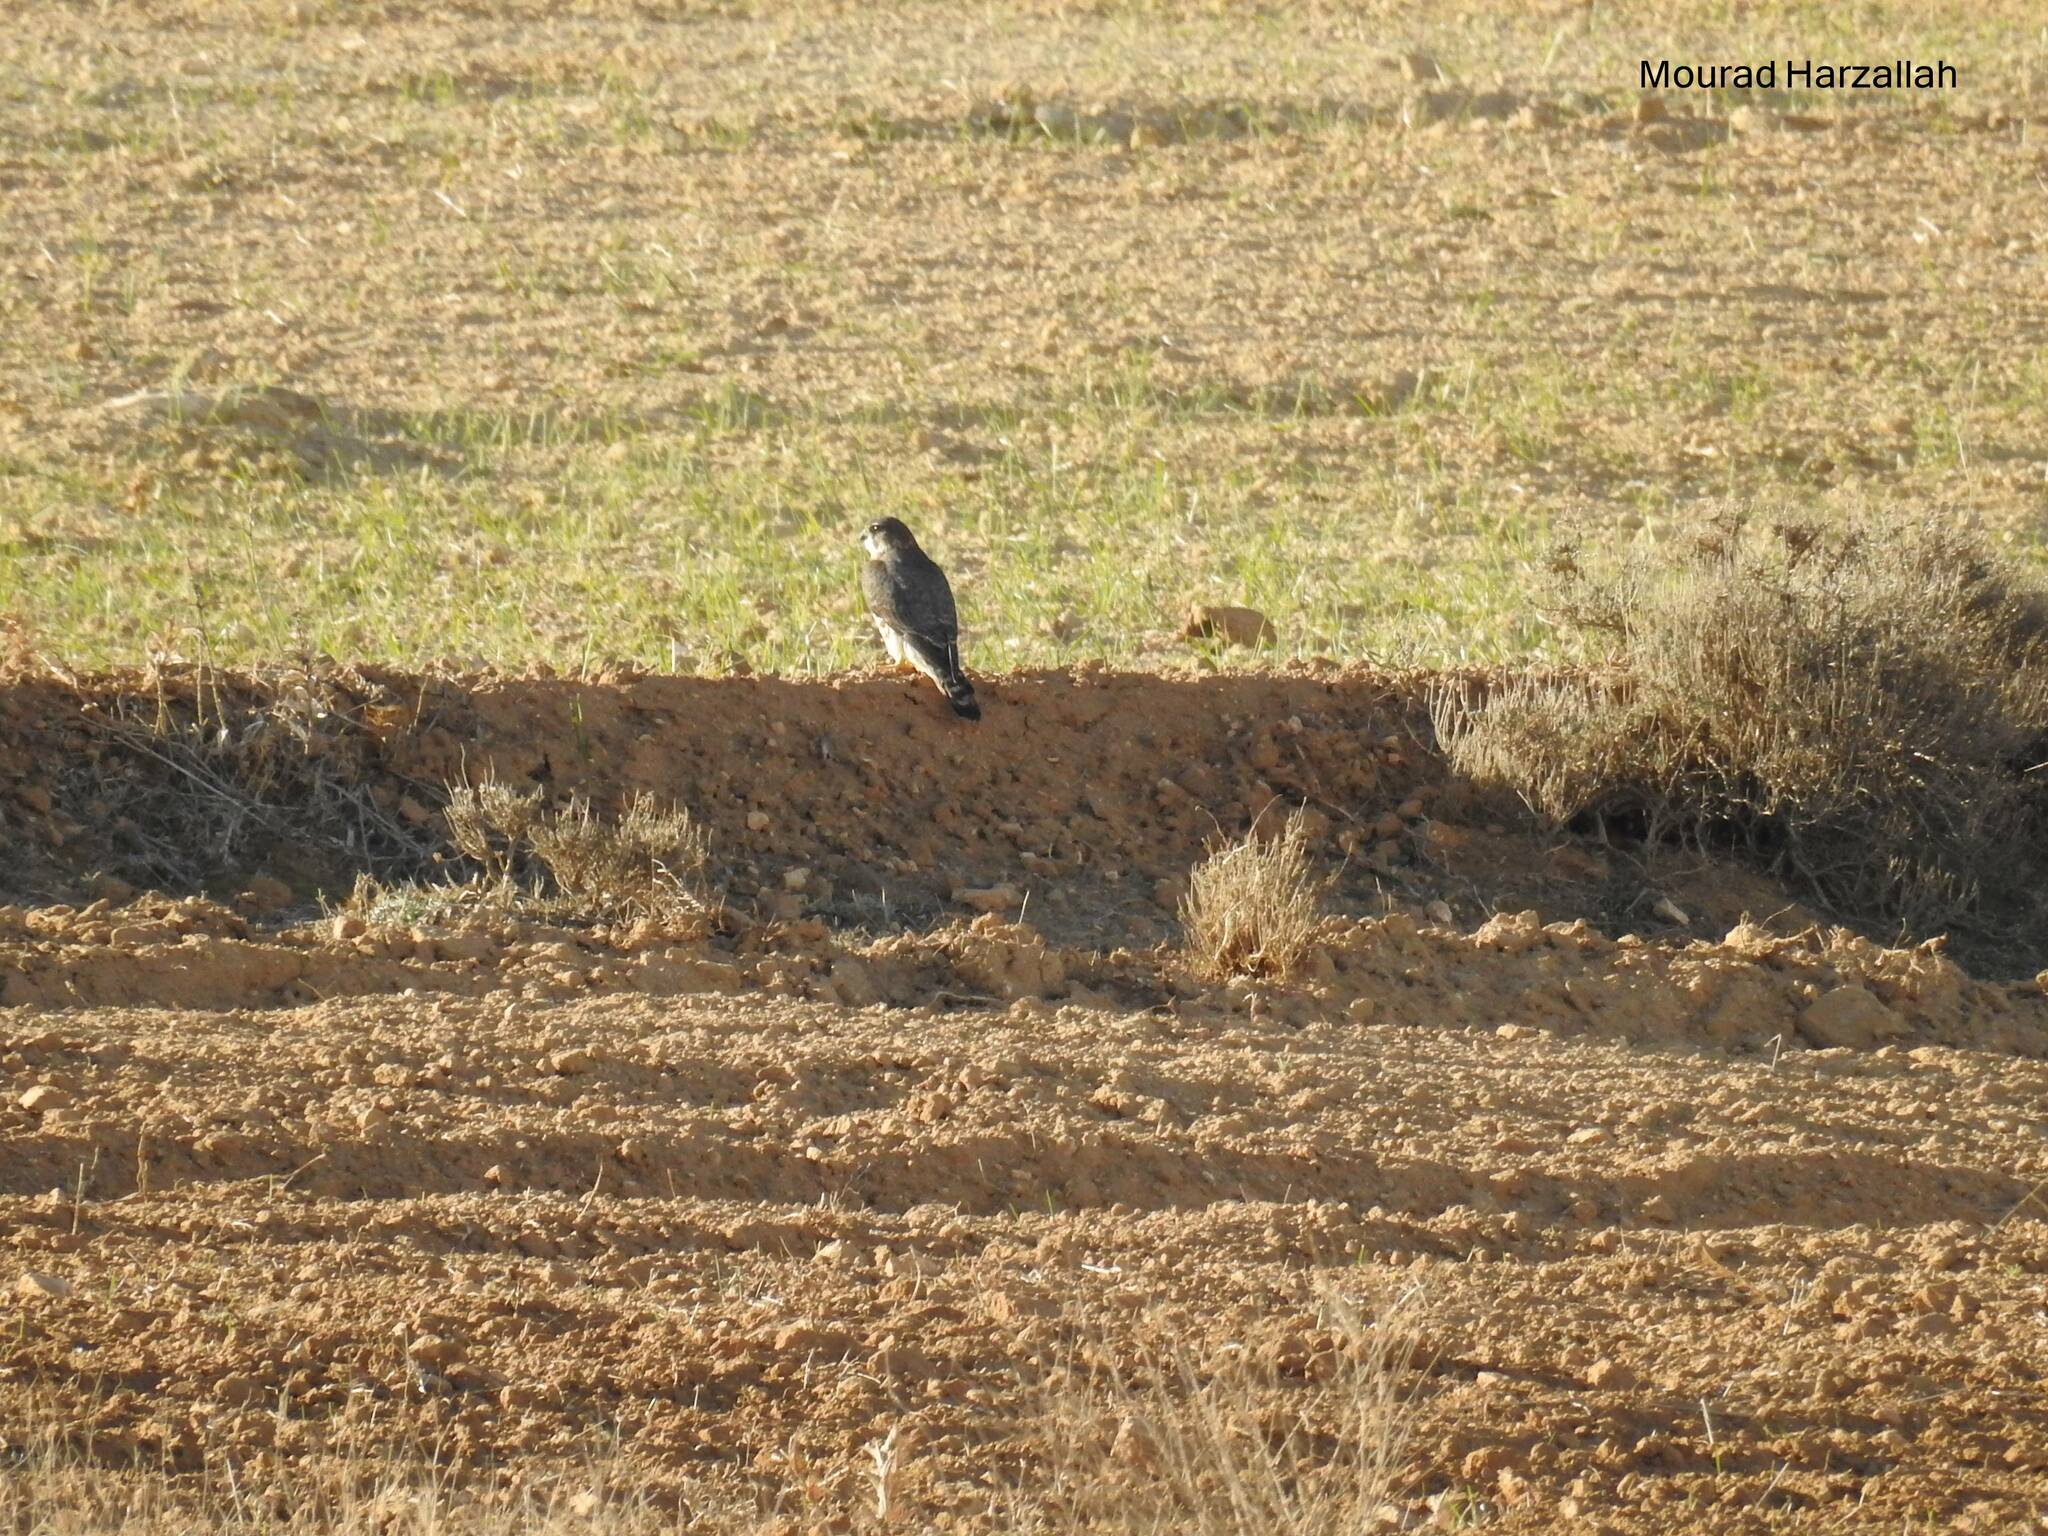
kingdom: Animalia
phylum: Chordata
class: Aves
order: Falconiformes
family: Falconidae
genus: Falco
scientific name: Falco columbarius
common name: Merlin
